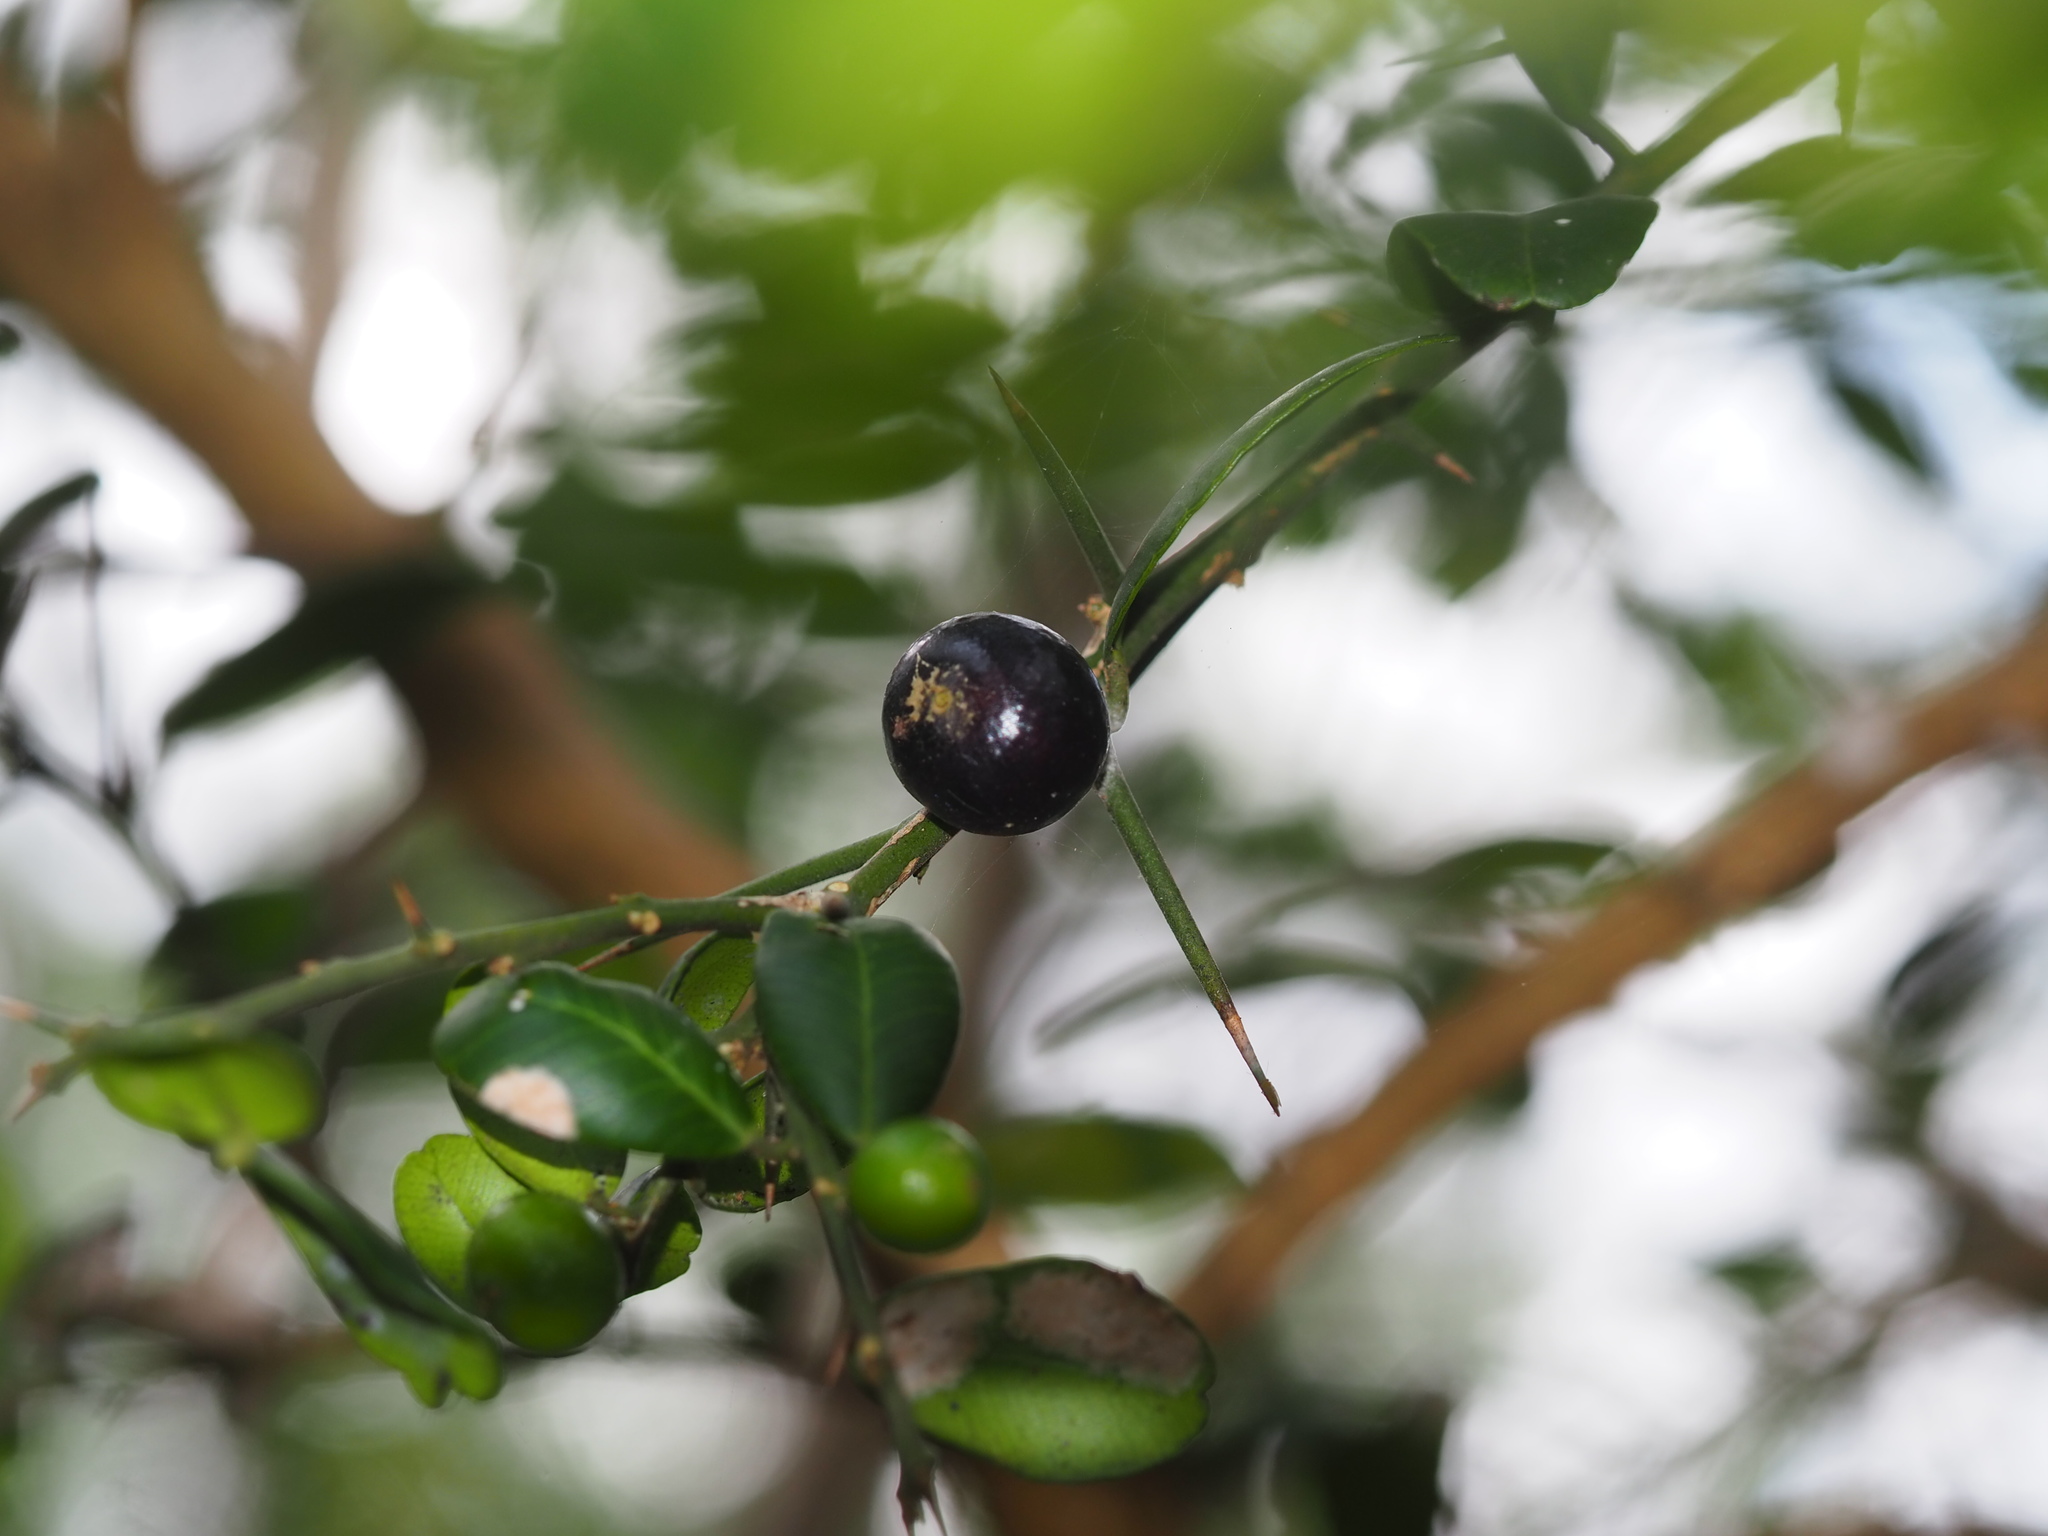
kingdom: Plantae
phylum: Tracheophyta
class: Magnoliopsida
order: Sapindales
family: Rutaceae
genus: Atalantia
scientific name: Atalantia buxifolia
